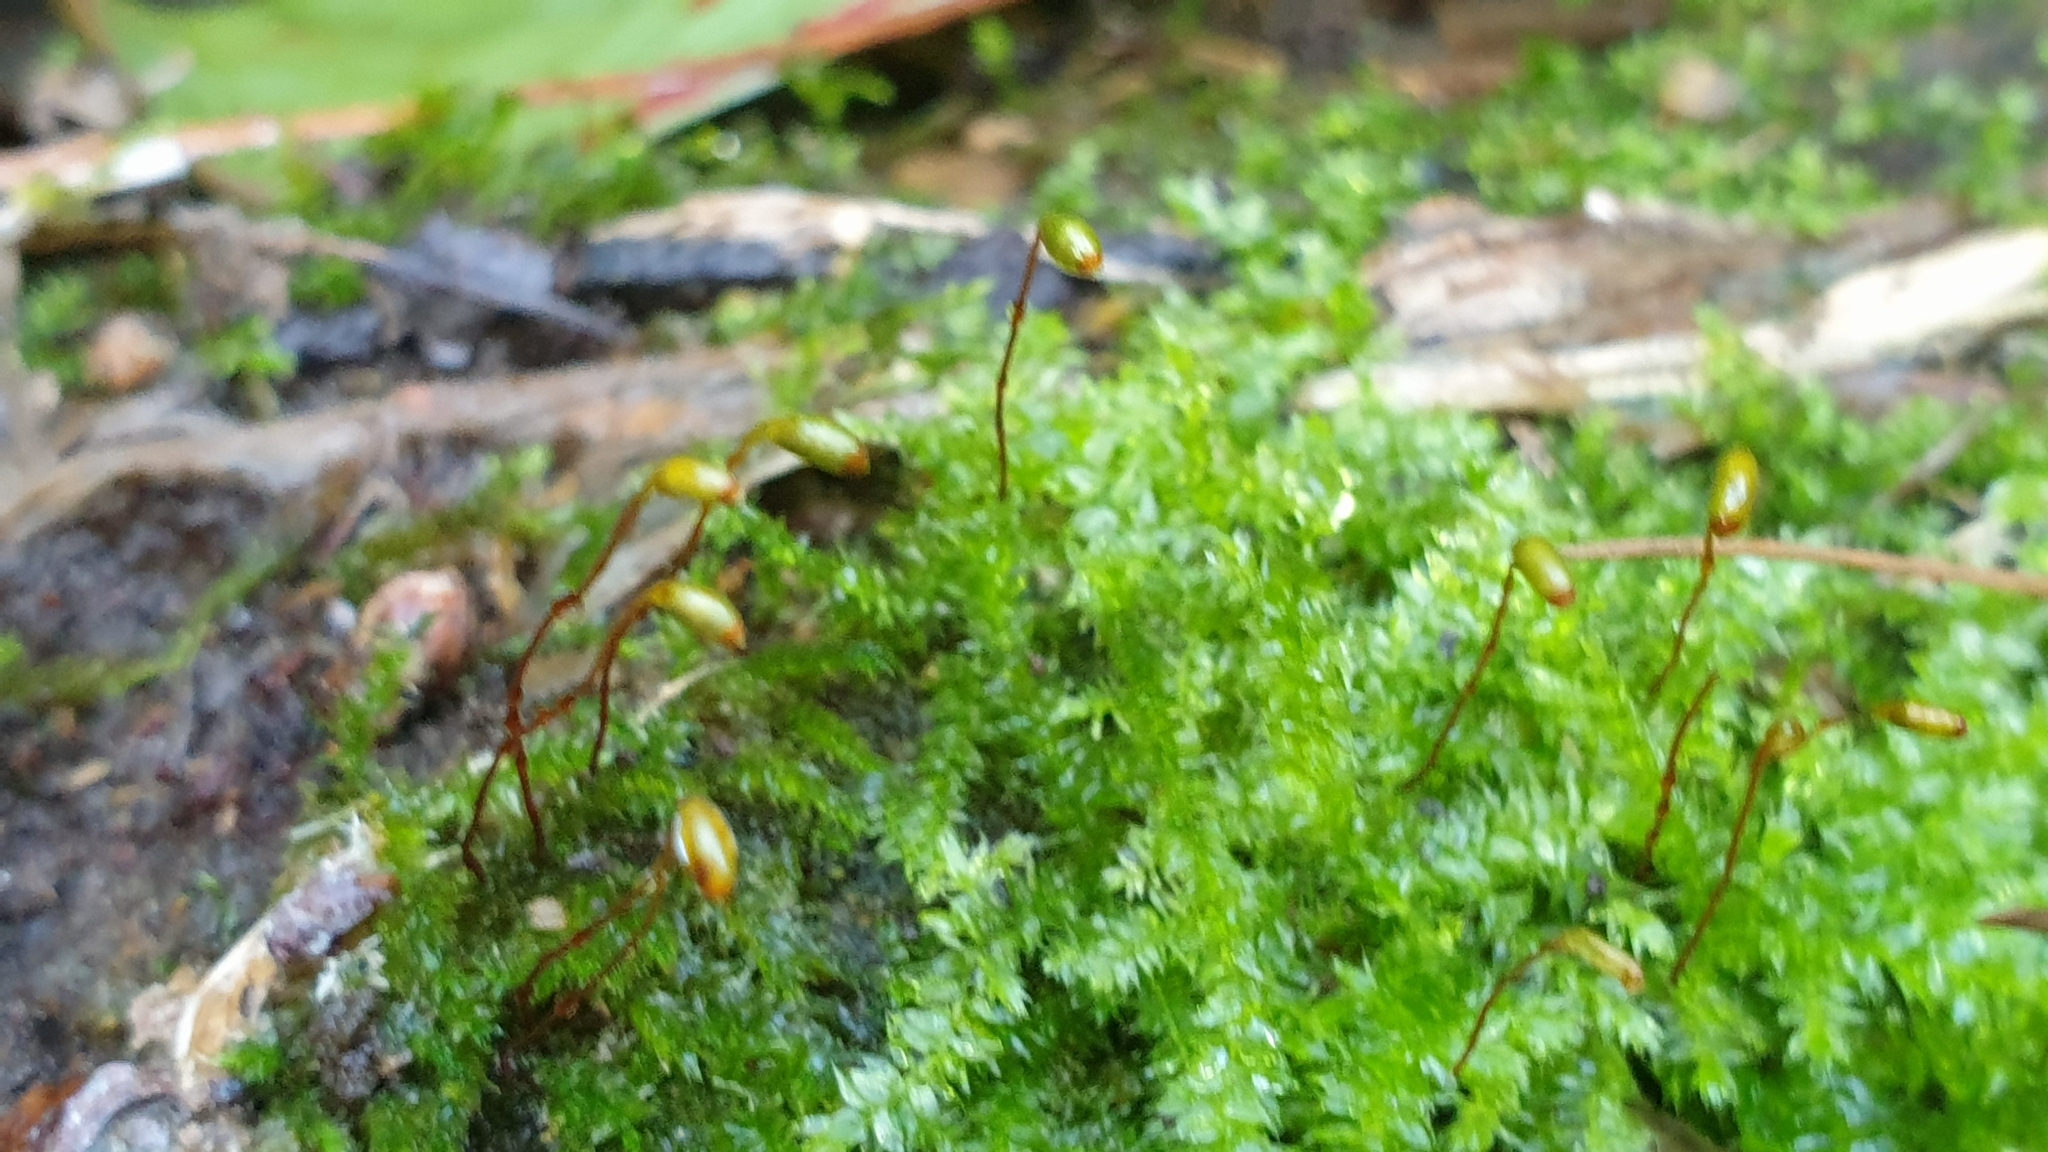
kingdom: Plantae
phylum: Bryophyta
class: Bryopsida
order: Hypnodendrales
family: Racopilaceae
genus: Racopilum
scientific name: Racopilum cuspidigerum
